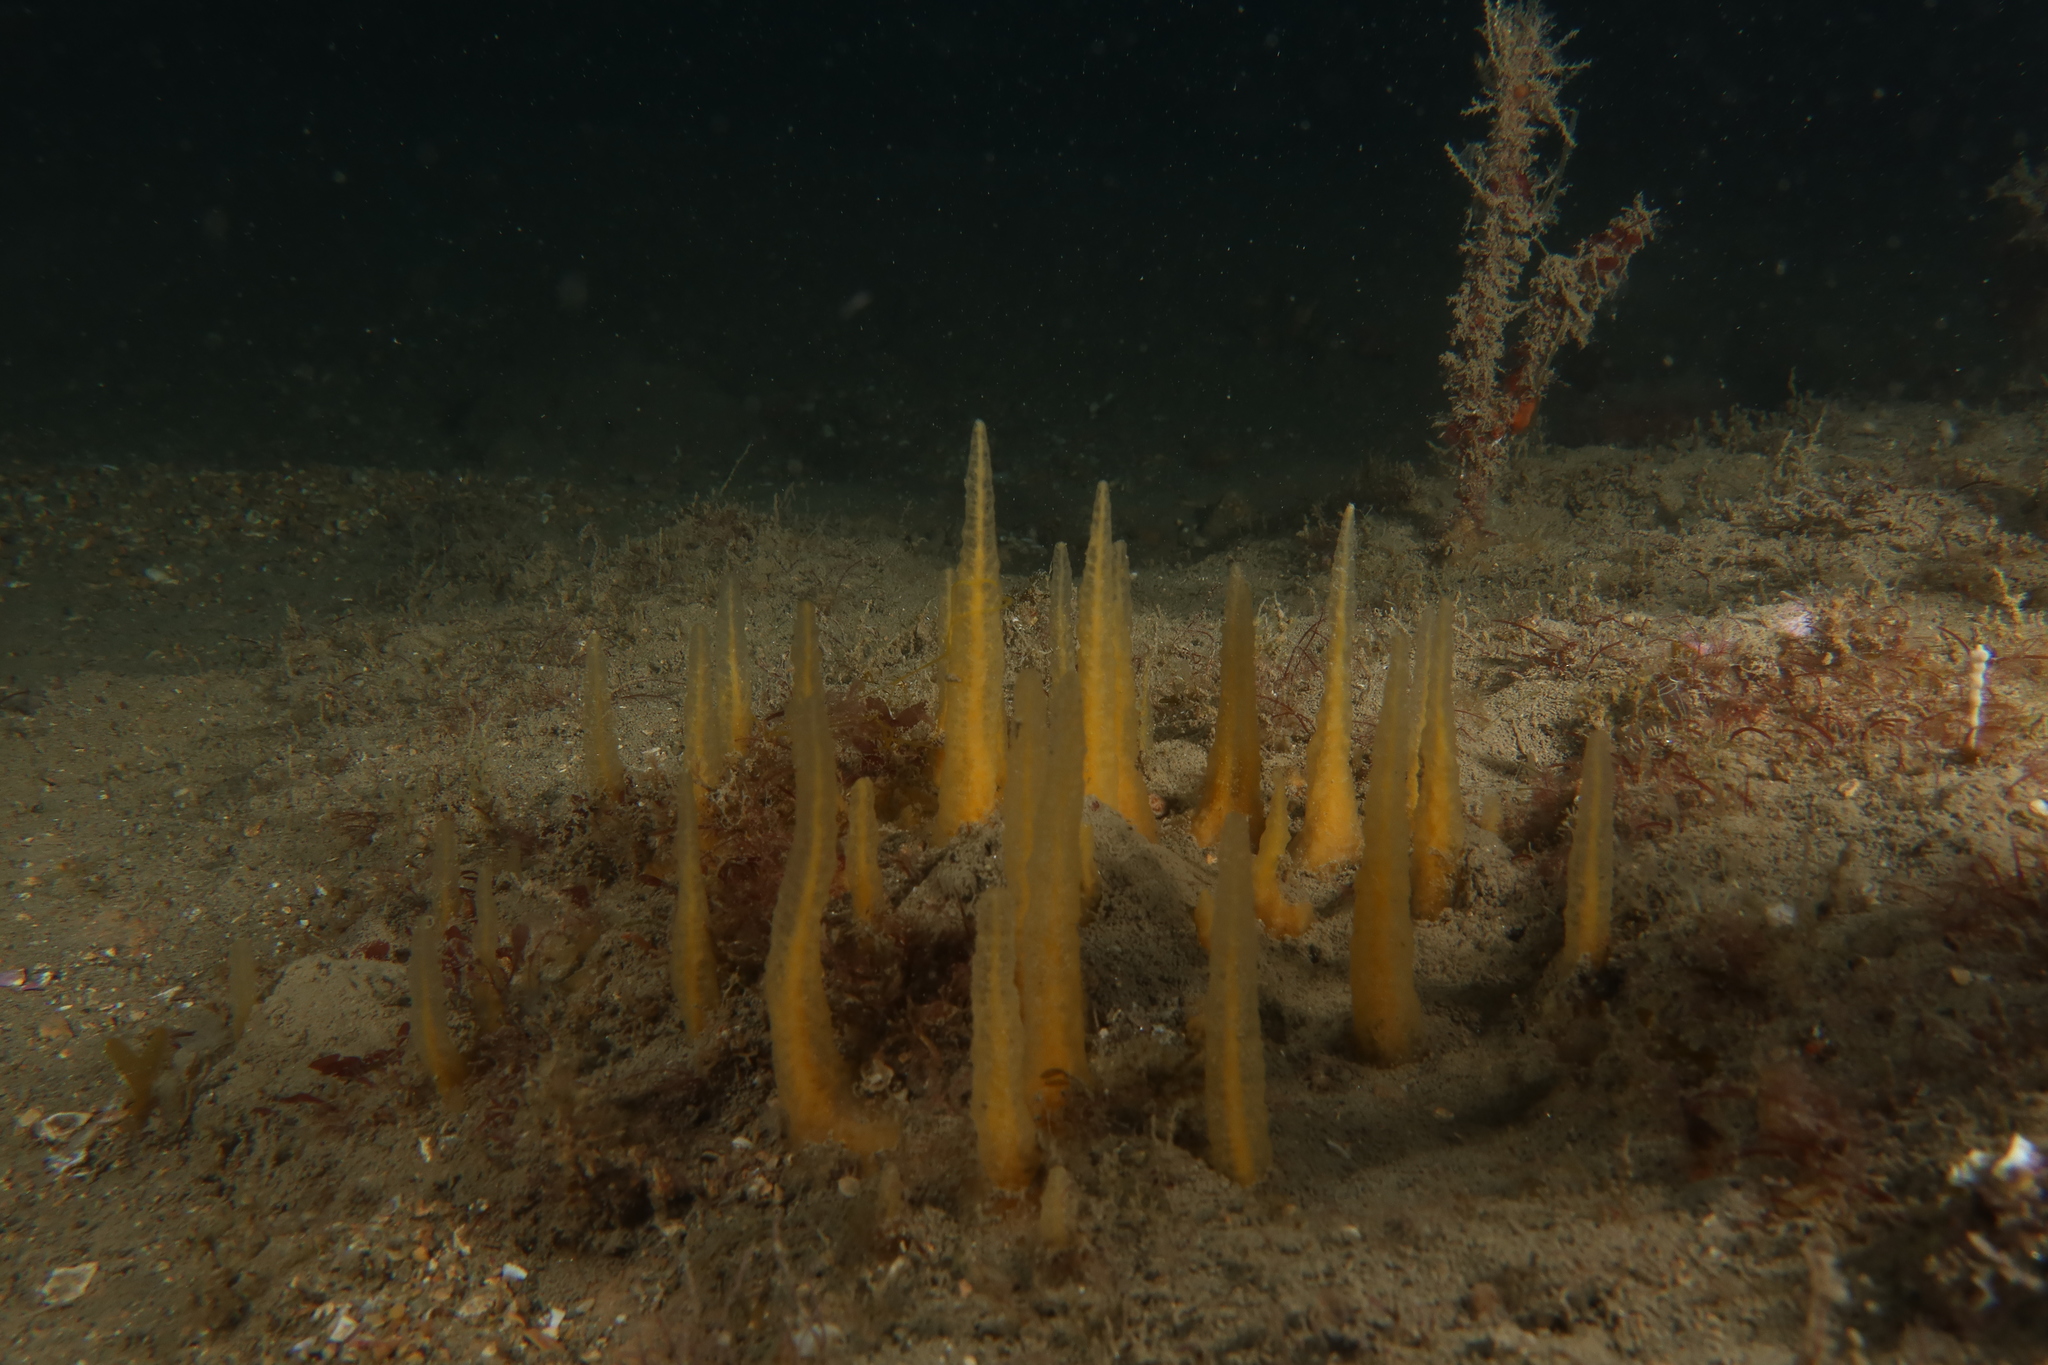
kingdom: Animalia
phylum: Porifera
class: Demospongiae
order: Suberitida
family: Halichondriidae
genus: Ciocalypta
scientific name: Ciocalypta penicillus
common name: Brush sponge
